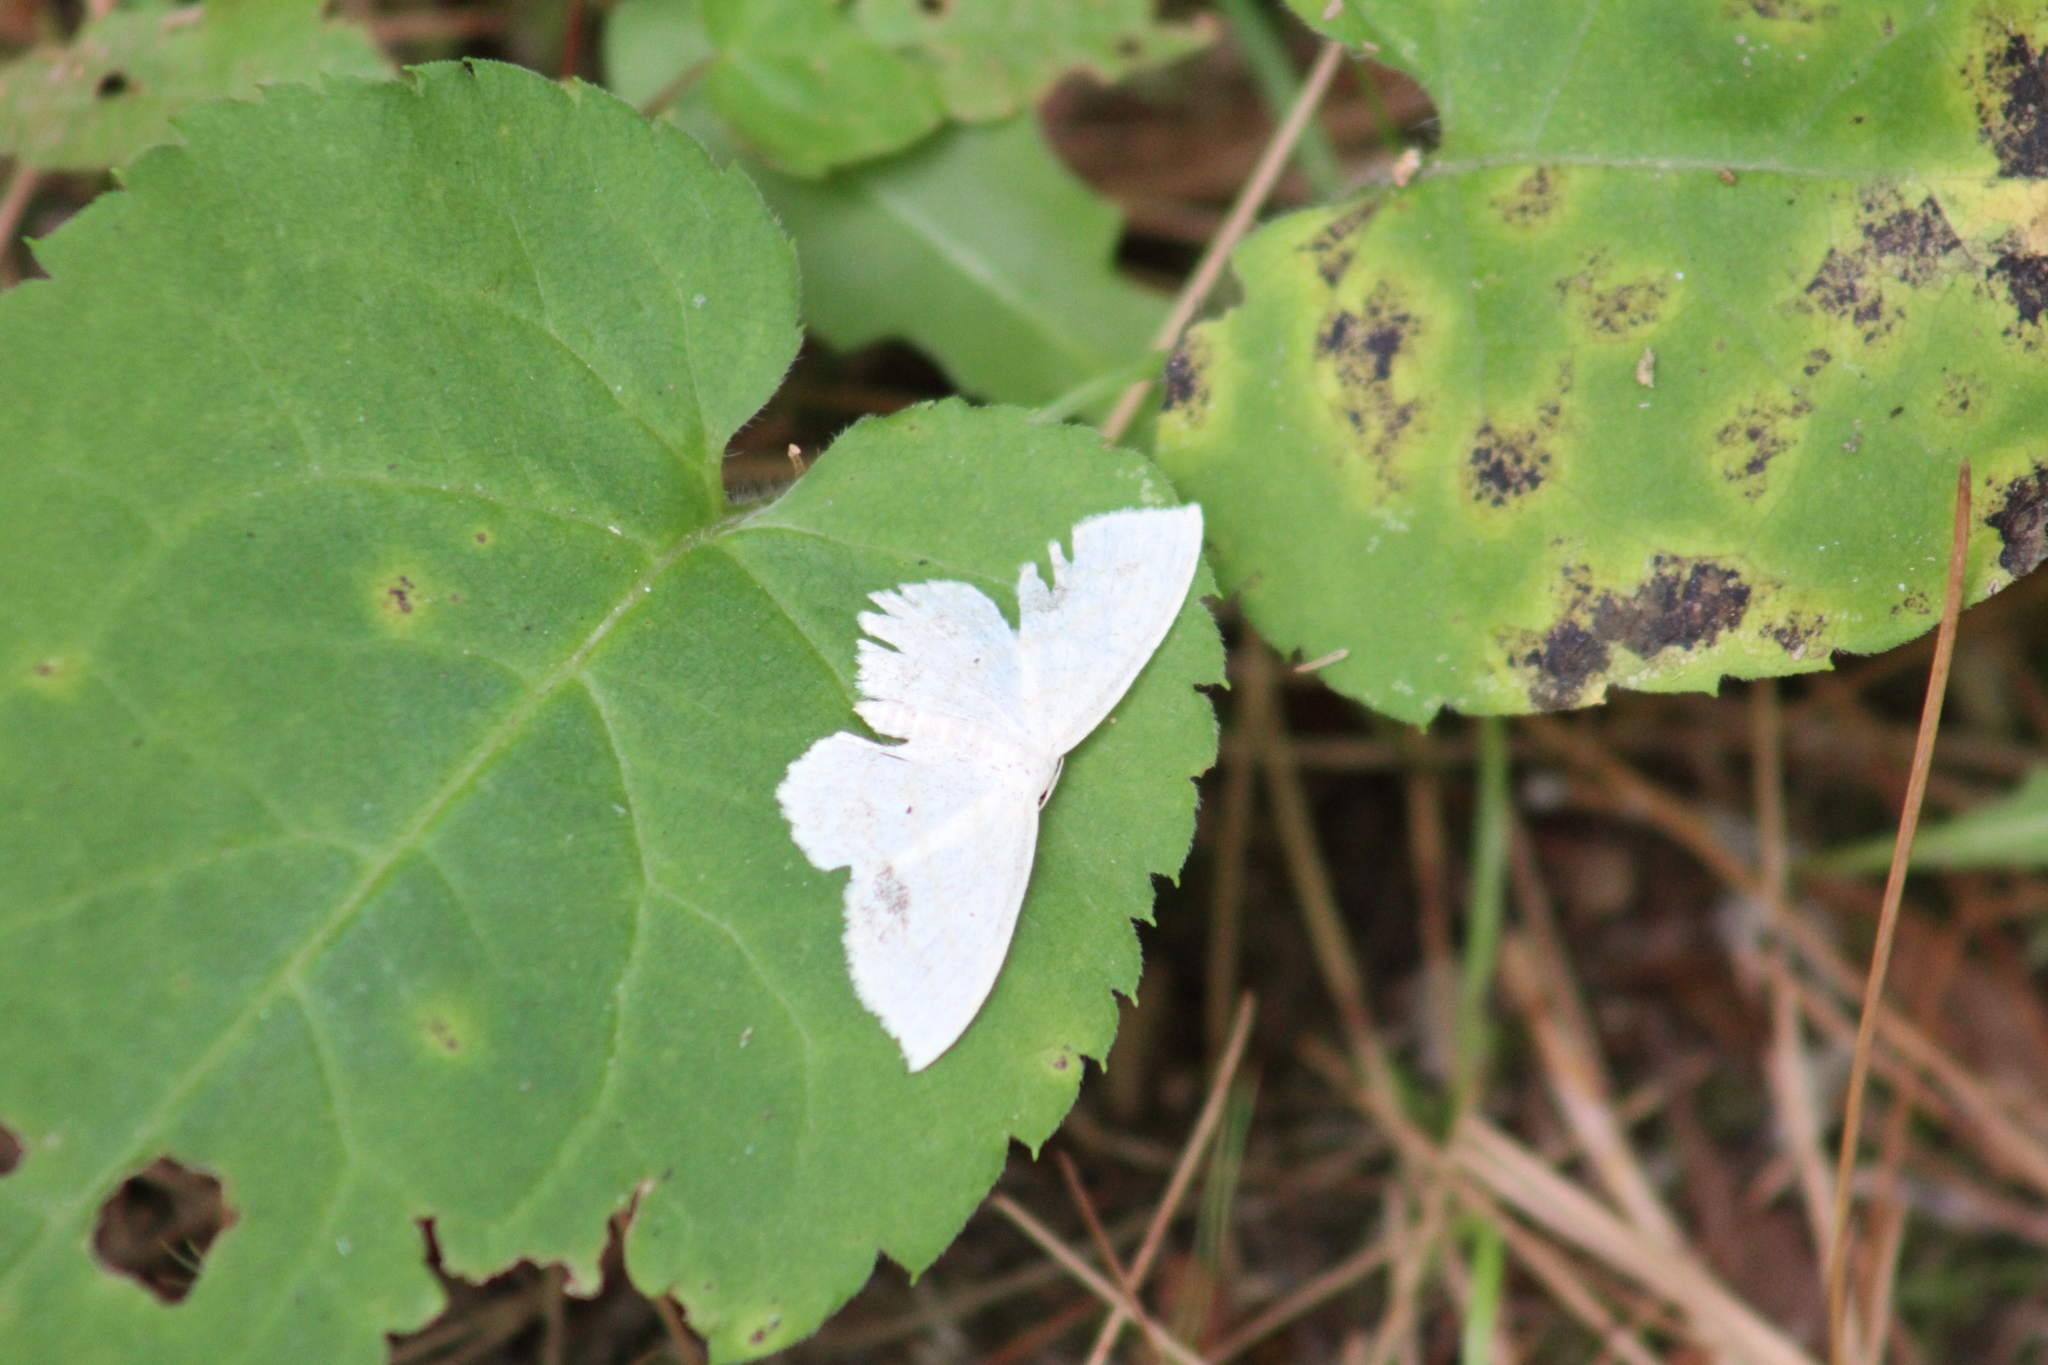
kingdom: Animalia
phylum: Arthropoda
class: Insecta
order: Lepidoptera
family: Geometridae
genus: Scopula
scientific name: Scopula limboundata
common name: Large lace border
